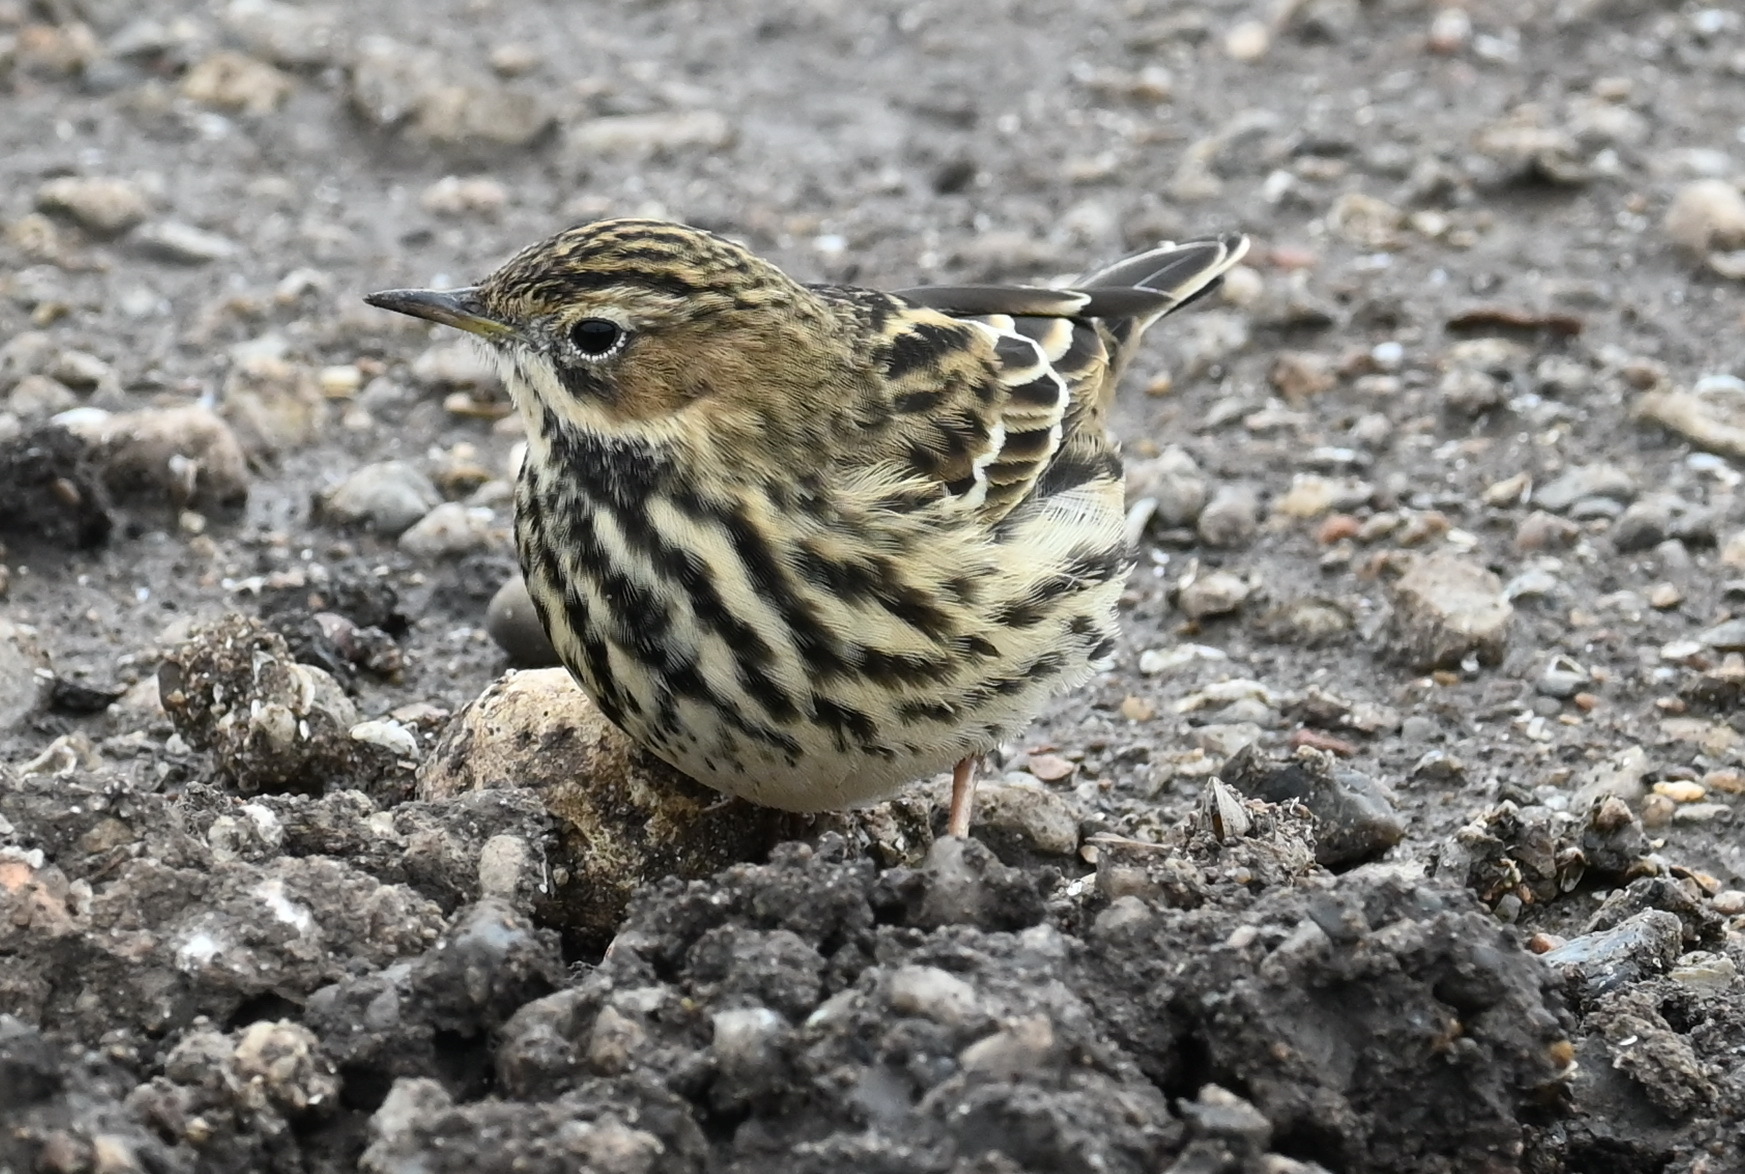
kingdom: Animalia
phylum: Chordata
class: Aves
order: Passeriformes
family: Motacillidae
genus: Anthus
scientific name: Anthus cervinus
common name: Red-throated pipit
